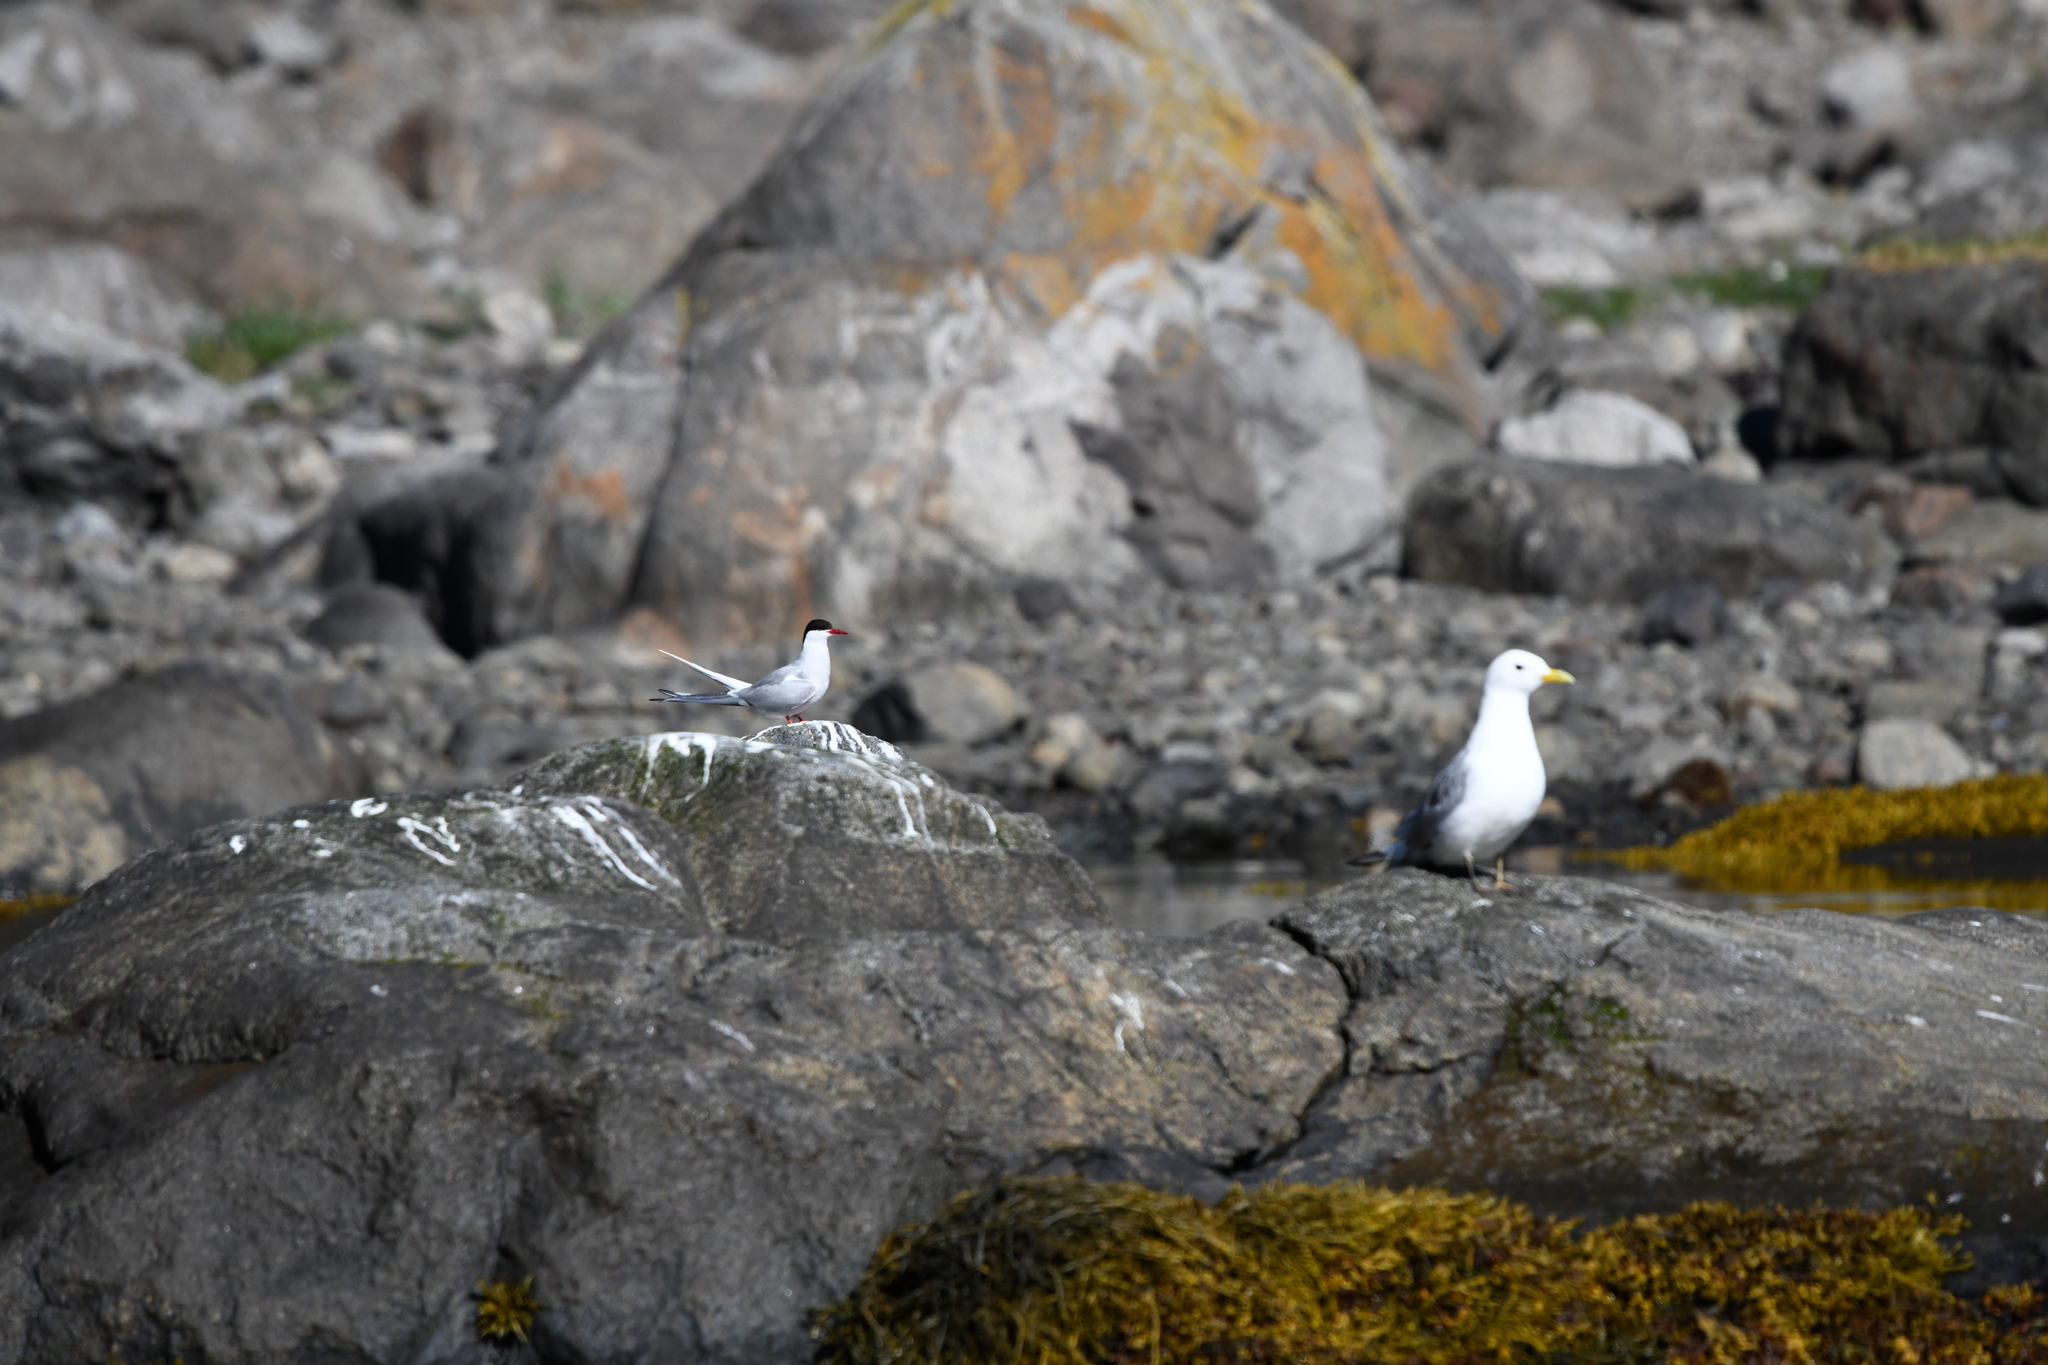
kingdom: Animalia
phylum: Chordata
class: Aves
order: Charadriiformes
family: Laridae
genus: Sterna
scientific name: Sterna paradisaea
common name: Arctic tern
